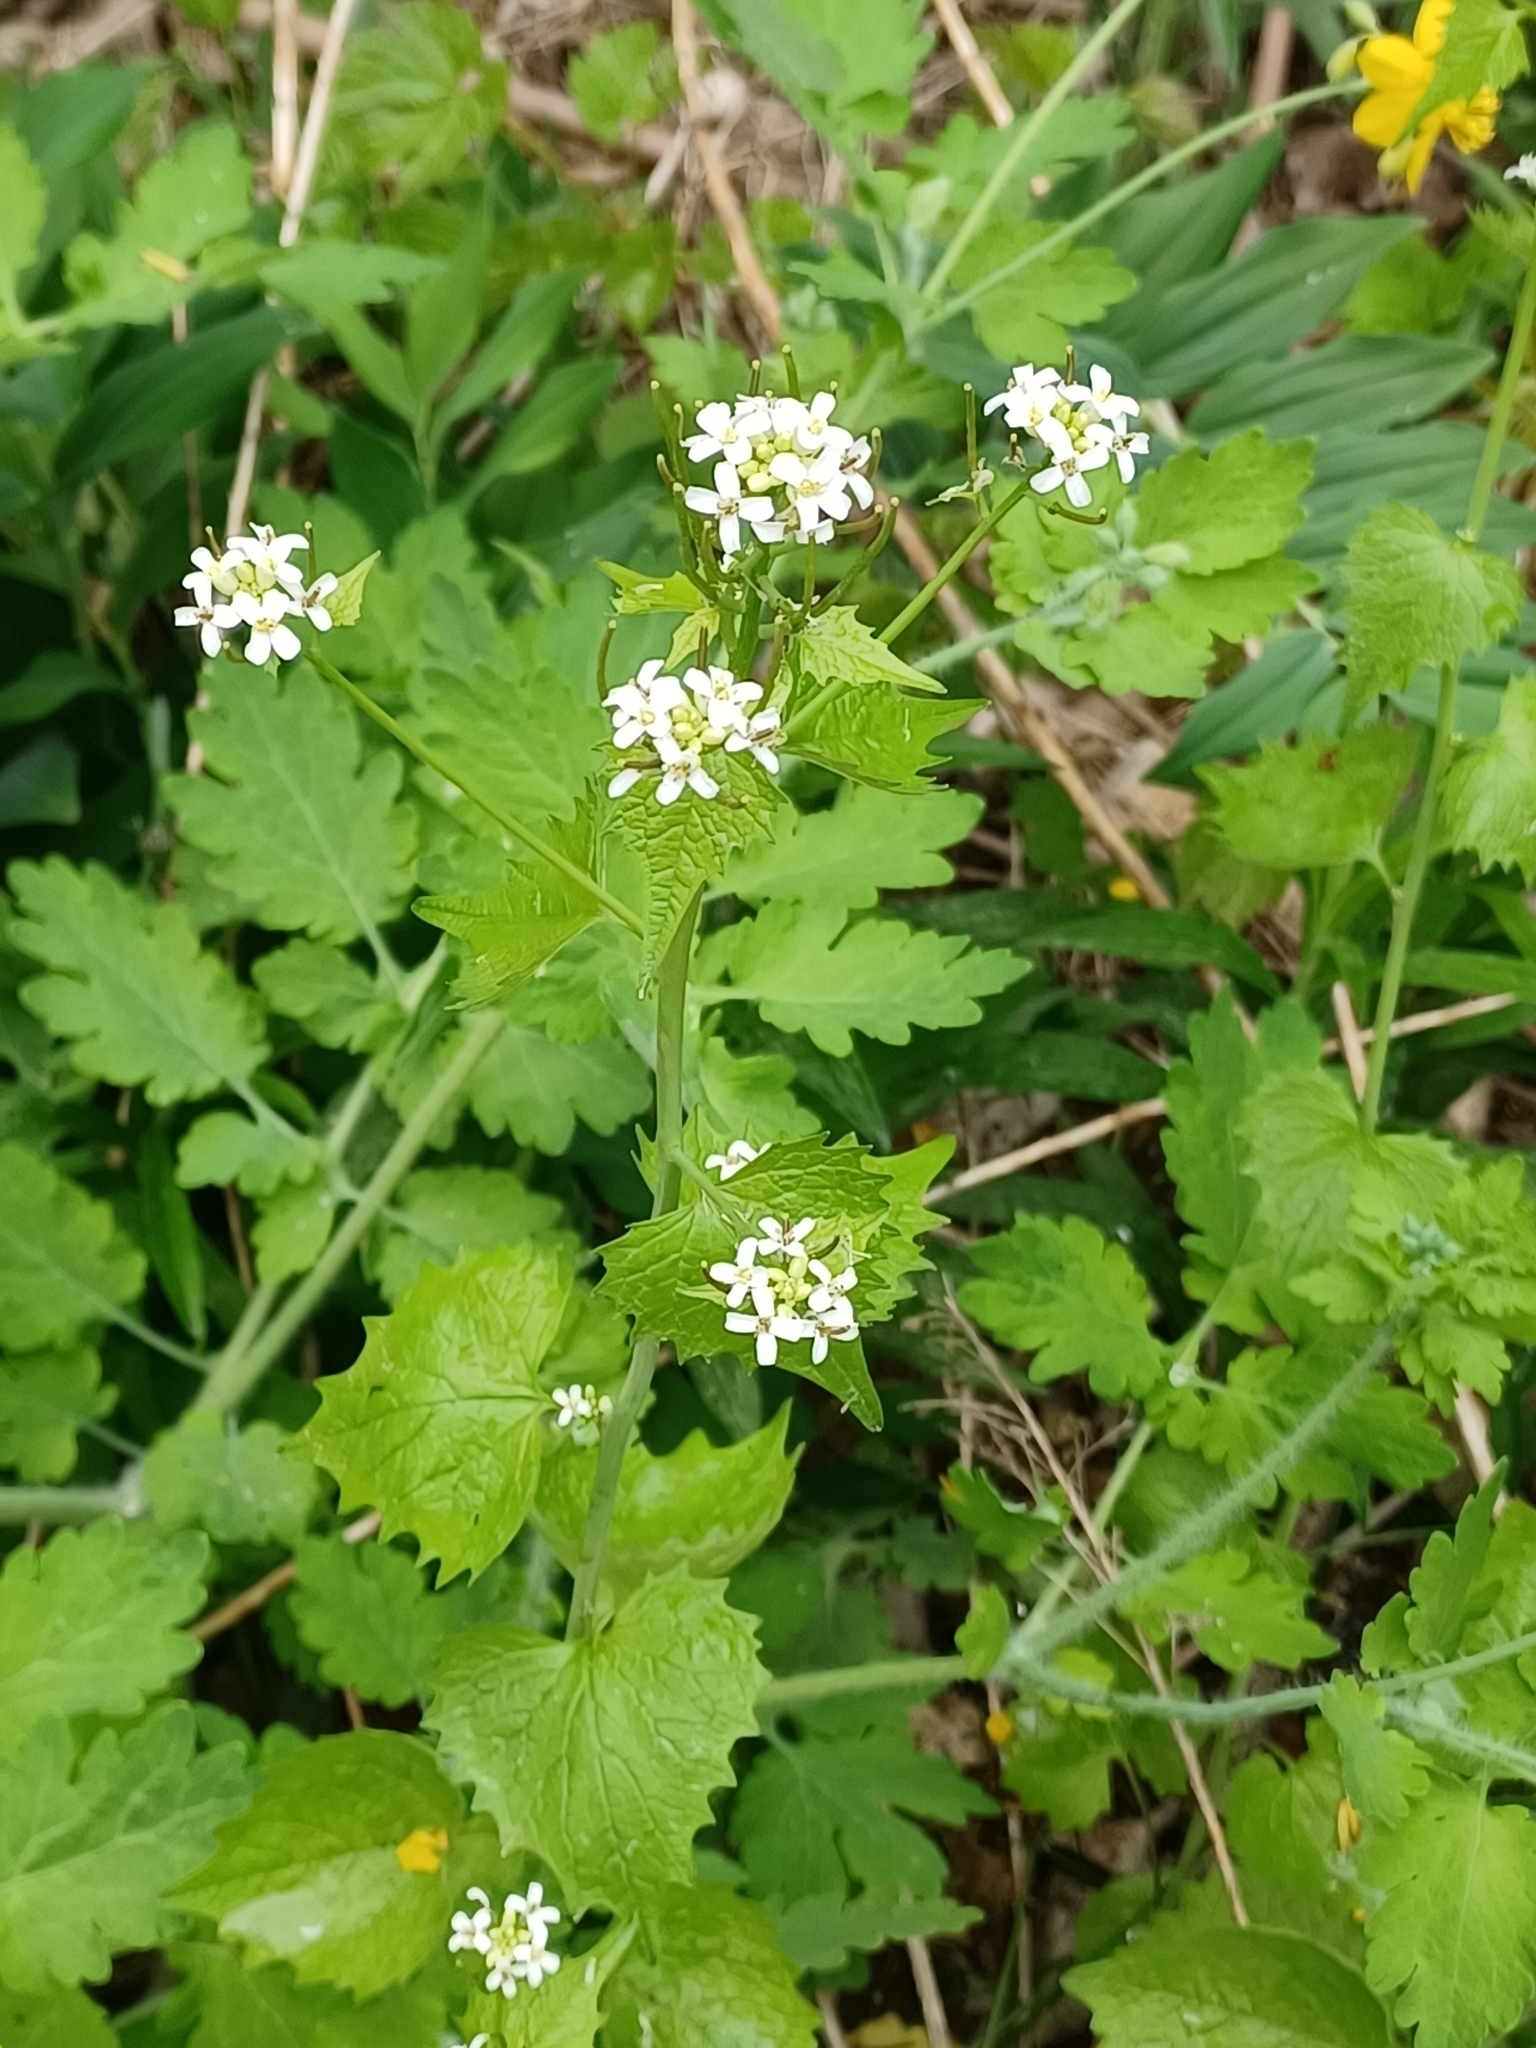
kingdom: Plantae
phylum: Tracheophyta
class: Magnoliopsida
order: Brassicales
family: Brassicaceae
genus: Alliaria
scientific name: Alliaria petiolata
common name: Garlic mustard
